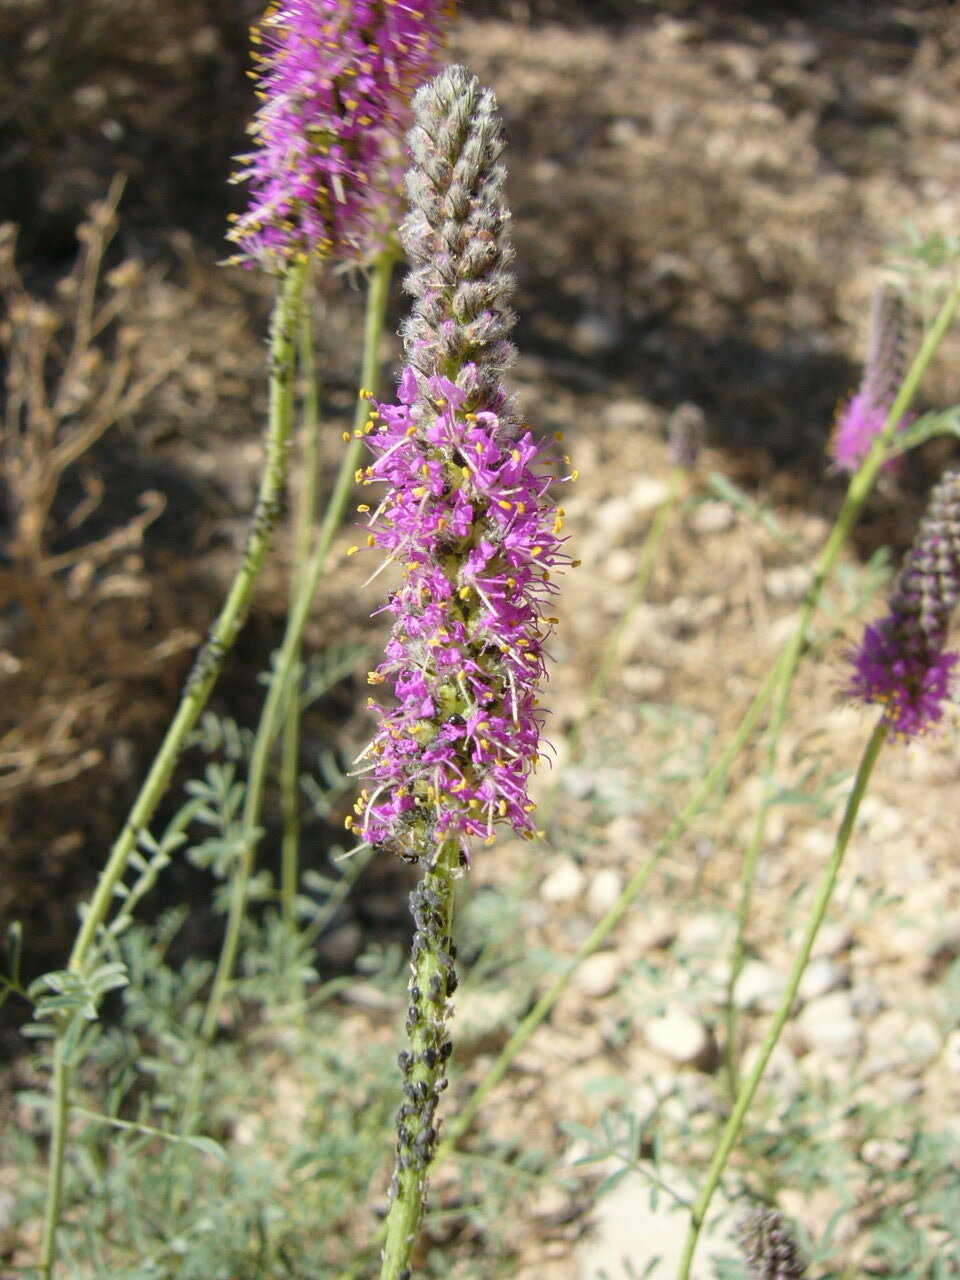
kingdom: Plantae
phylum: Tracheophyta
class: Magnoliopsida
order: Fabales
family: Fabaceae
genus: Dalea
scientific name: Dalea searlsiae
